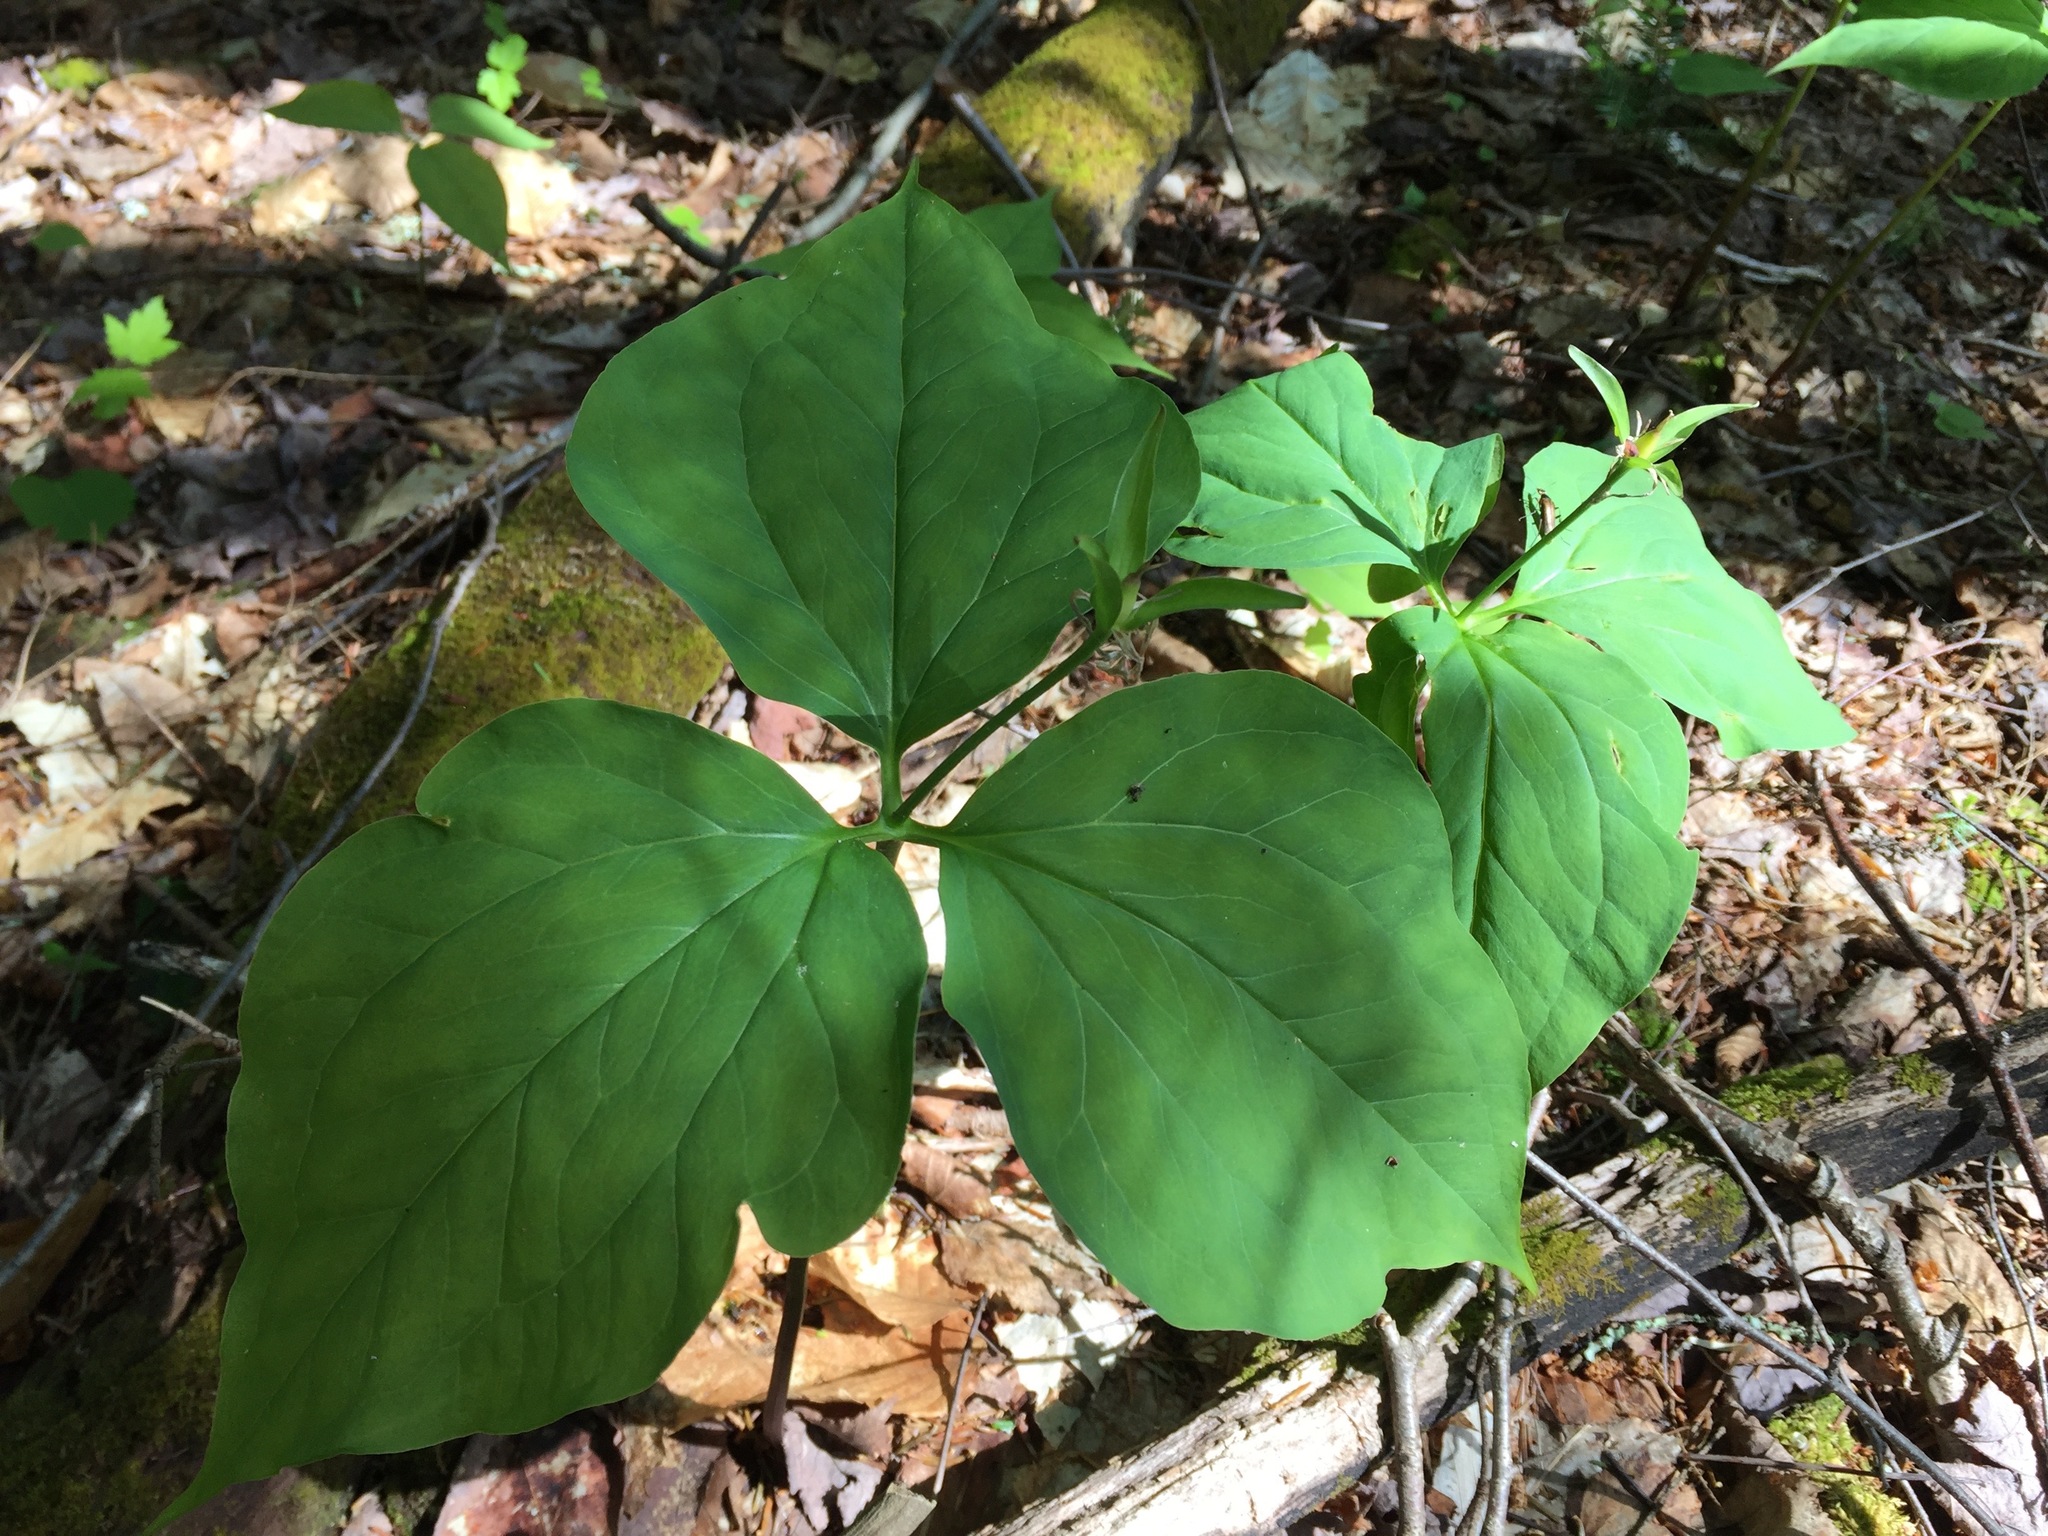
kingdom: Plantae
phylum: Tracheophyta
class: Liliopsida
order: Liliales
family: Melanthiaceae
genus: Trillium
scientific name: Trillium undulatum
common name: Paint trillium
